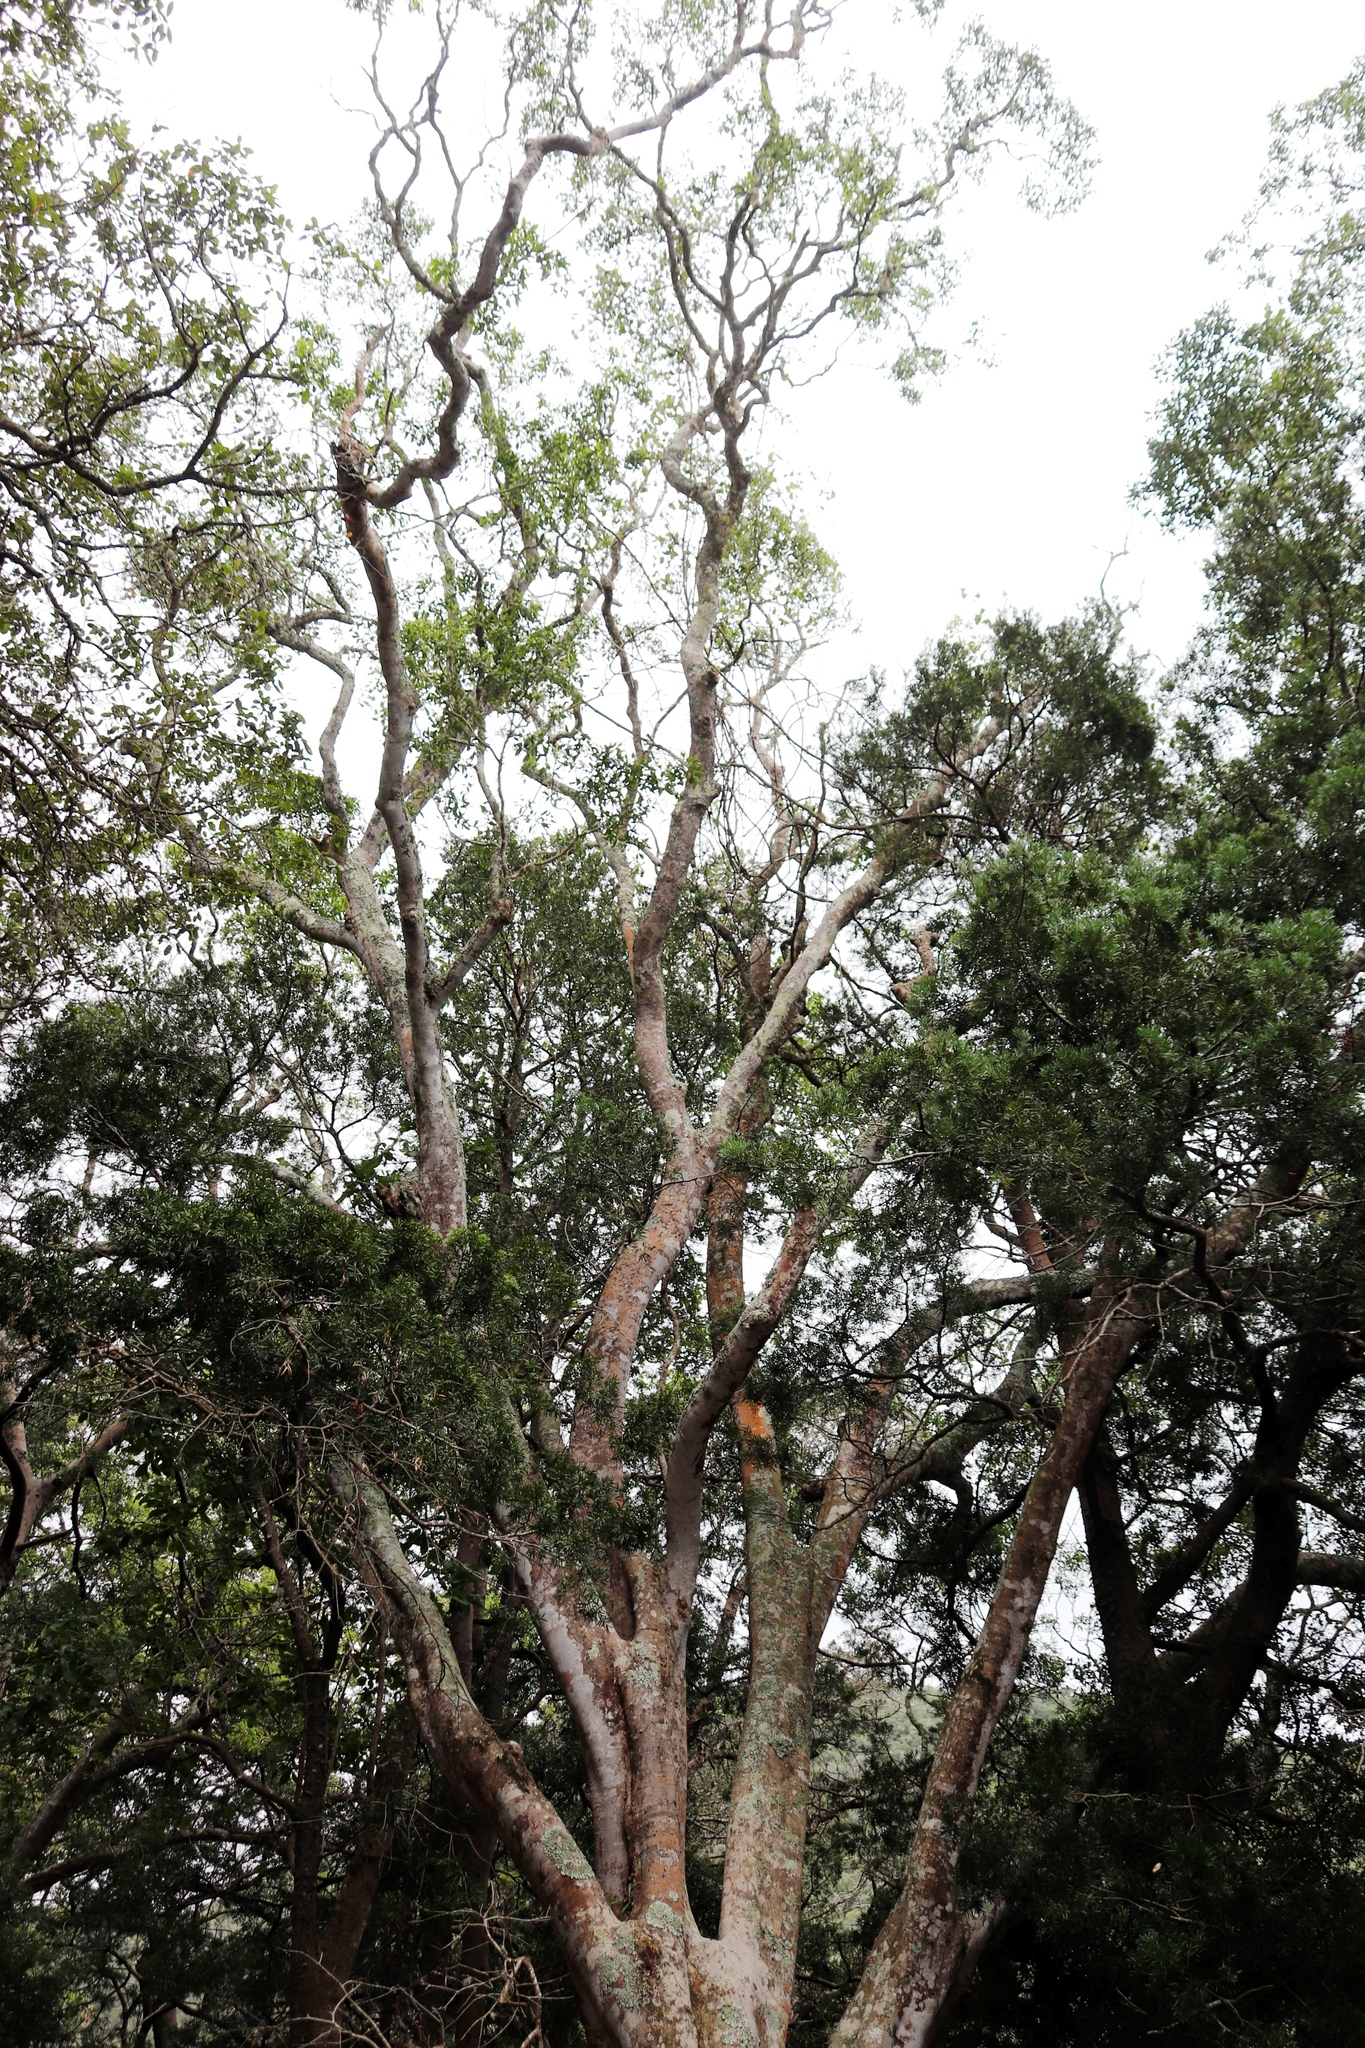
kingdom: Plantae
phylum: Tracheophyta
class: Magnoliopsida
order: Sapindales
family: Rutaceae
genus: Vepris
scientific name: Vepris lanceolata
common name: White ironwood
